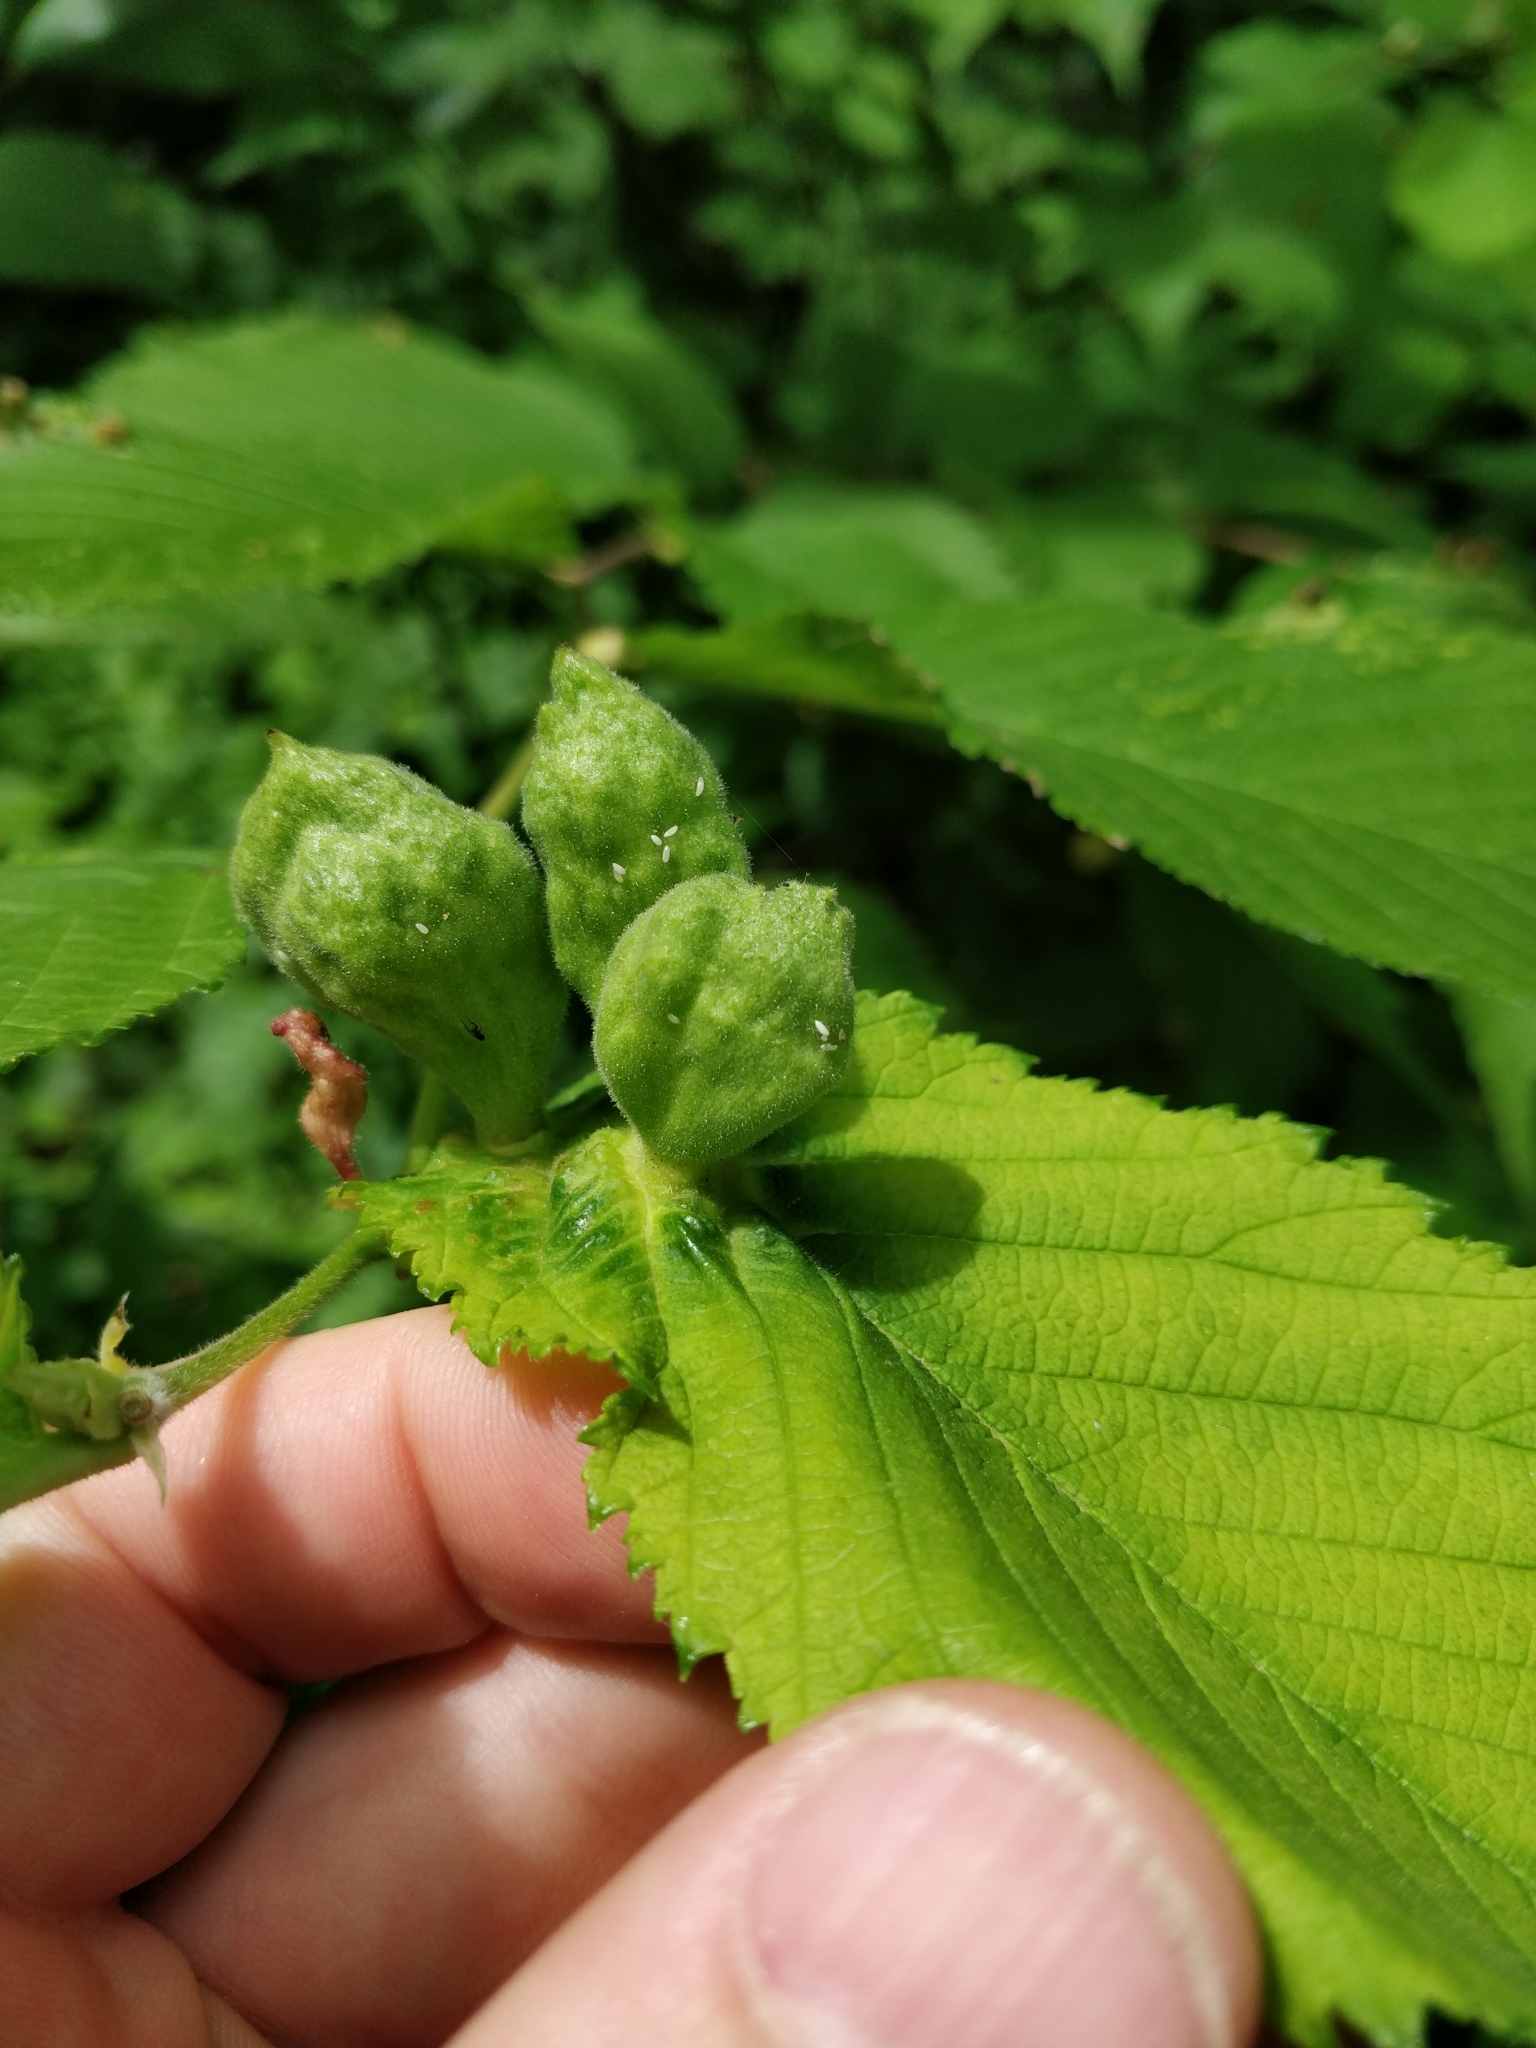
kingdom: Animalia
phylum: Arthropoda
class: Insecta
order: Hemiptera
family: Aphididae
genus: Kaltenbachiella
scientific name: Kaltenbachiella ulmifusa
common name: Elm pouchgall aphid
